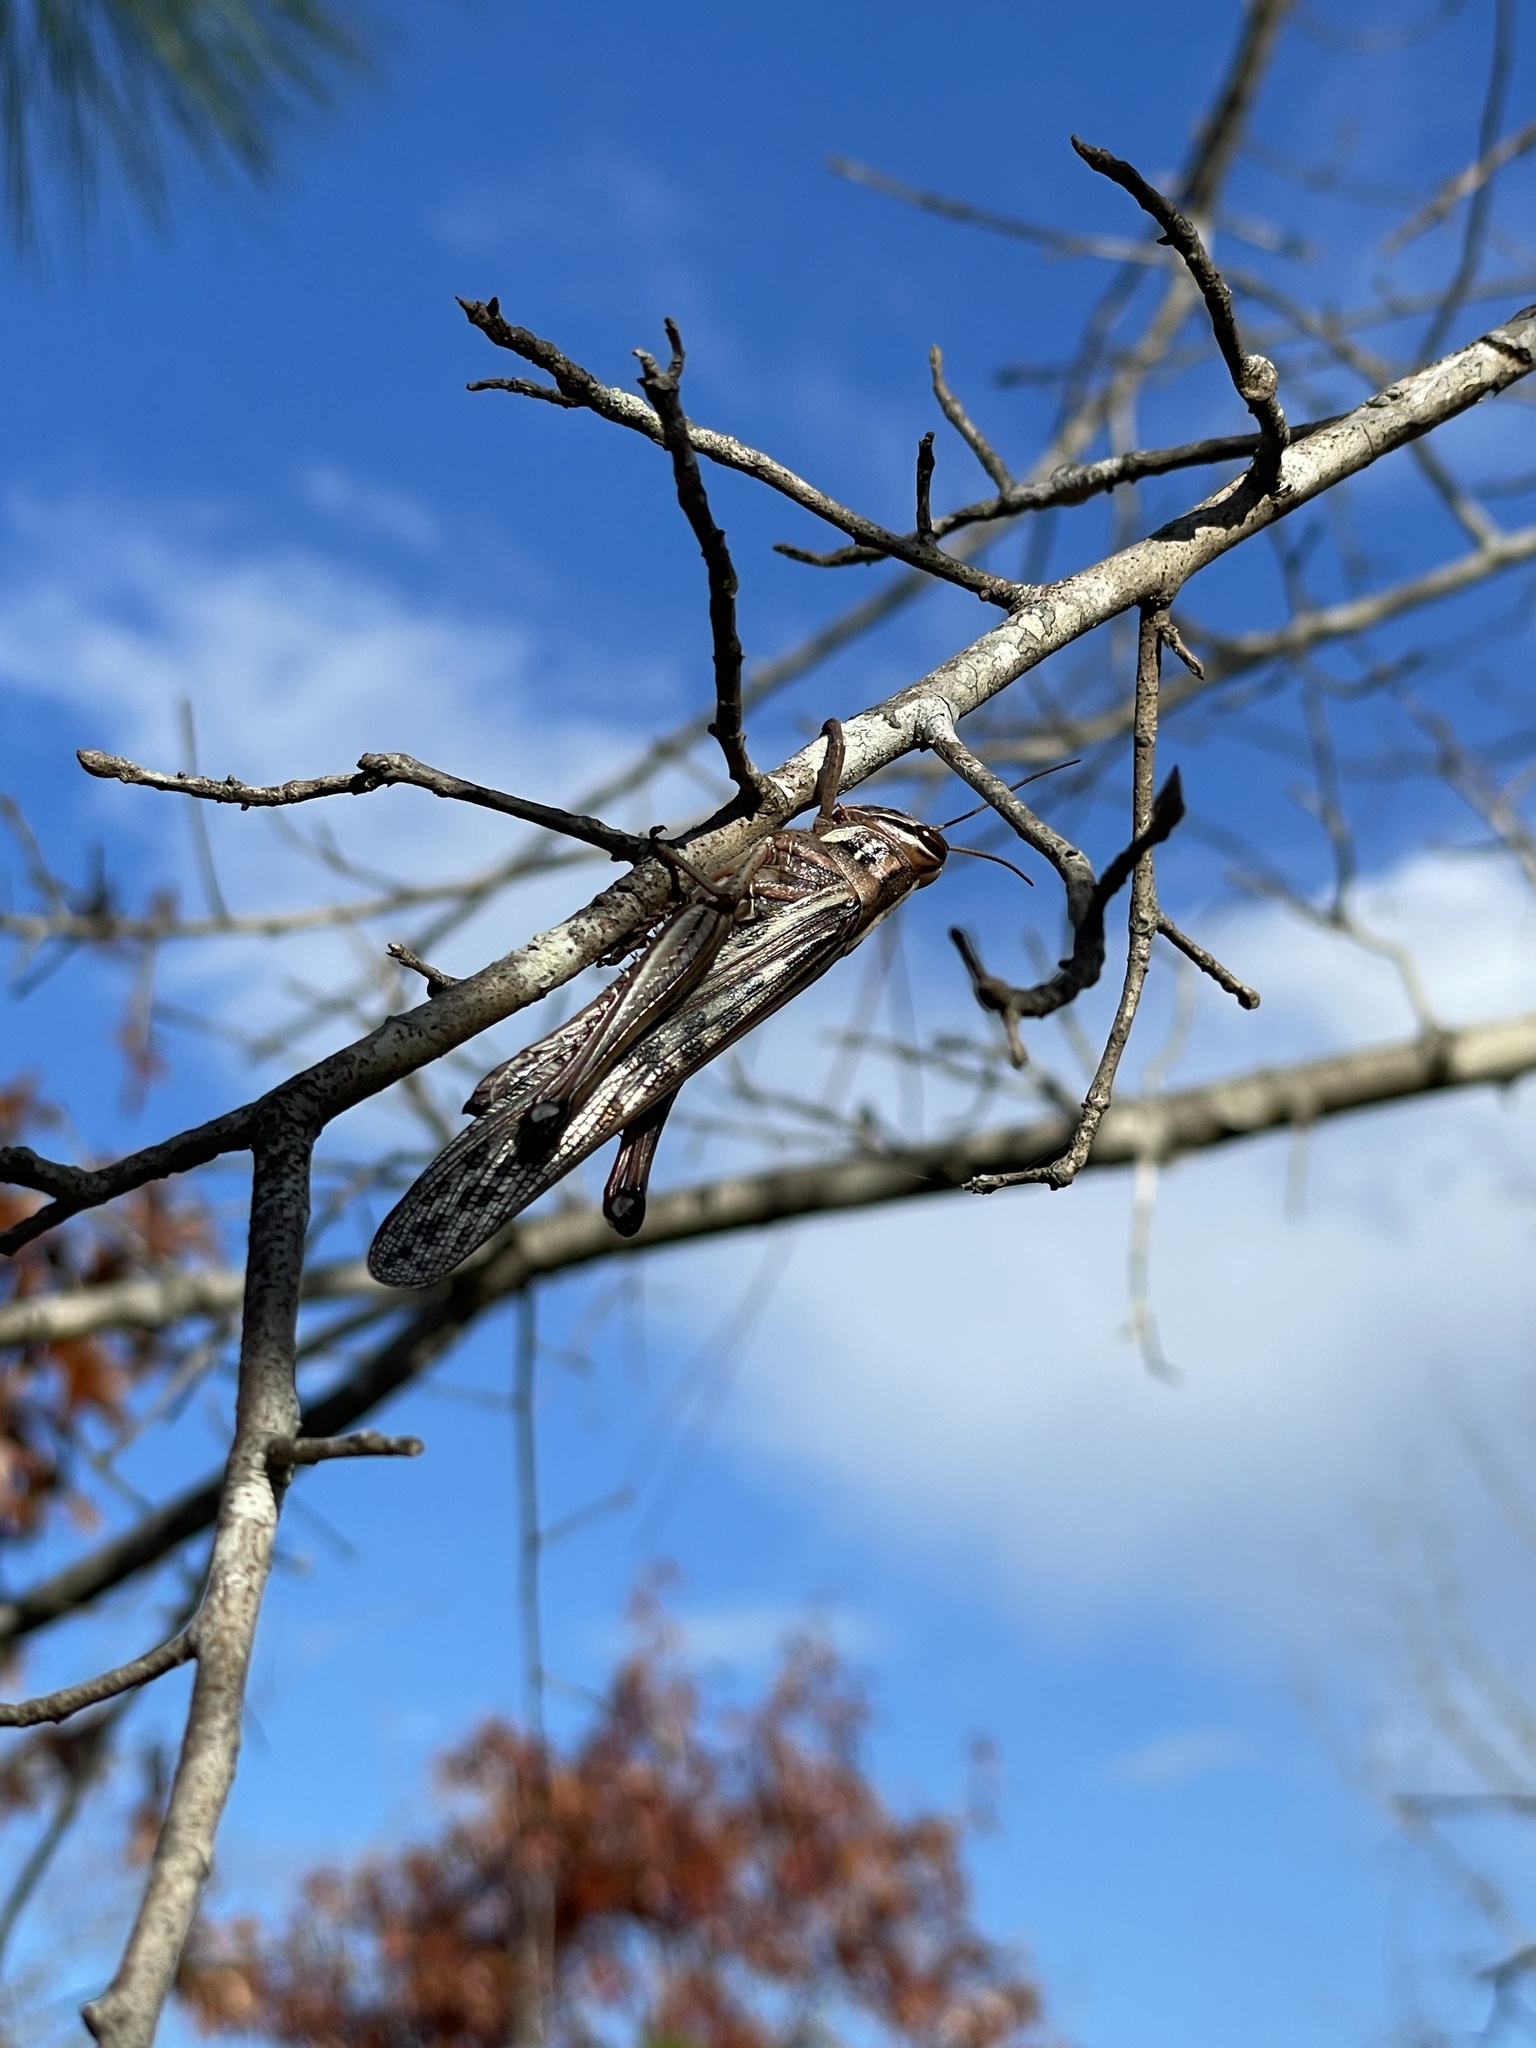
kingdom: Animalia
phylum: Arthropoda
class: Insecta
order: Orthoptera
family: Acrididae
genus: Schistocerca
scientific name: Schistocerca americana
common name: American bird locust
